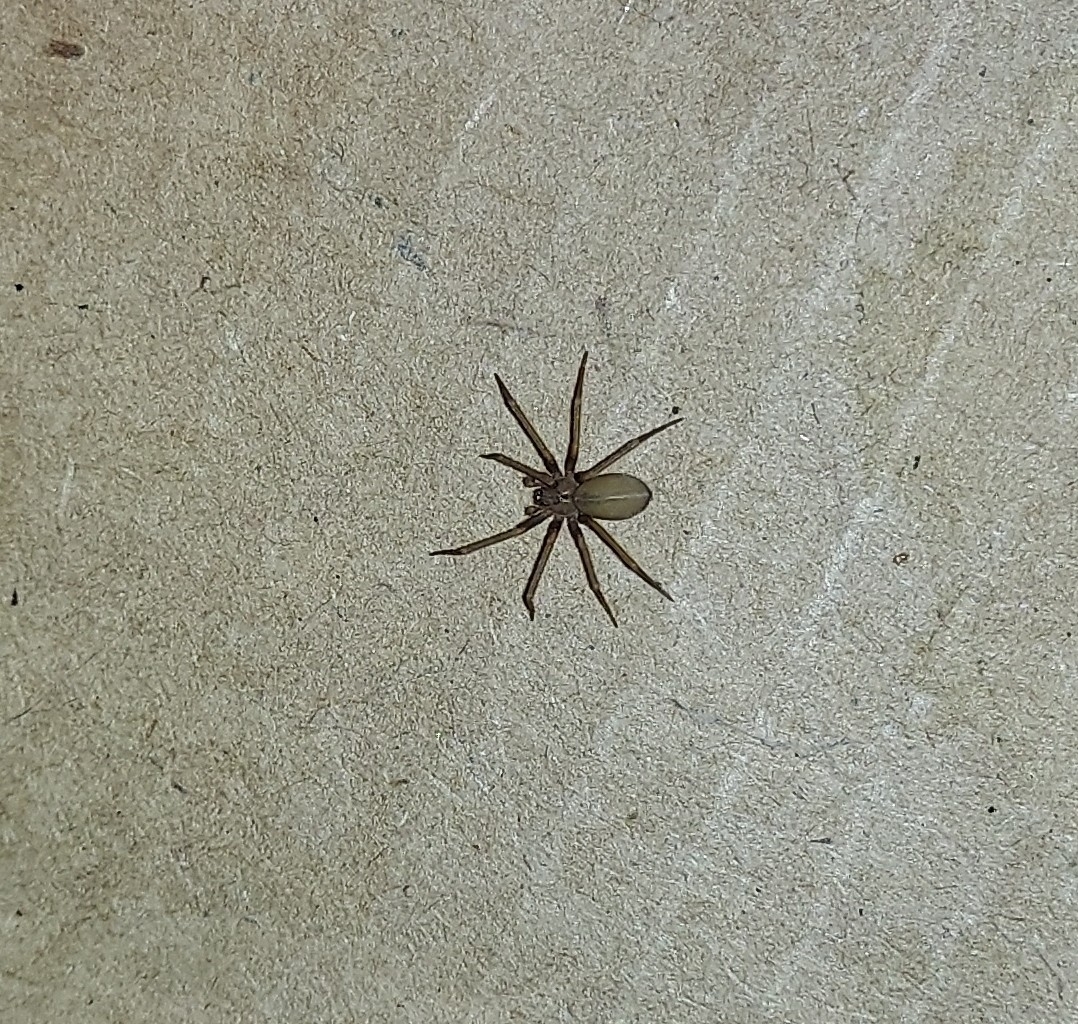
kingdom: Animalia
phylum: Arthropoda
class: Arachnida
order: Araneae
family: Sicariidae
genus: Loxosceles
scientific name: Loxosceles reclusa
